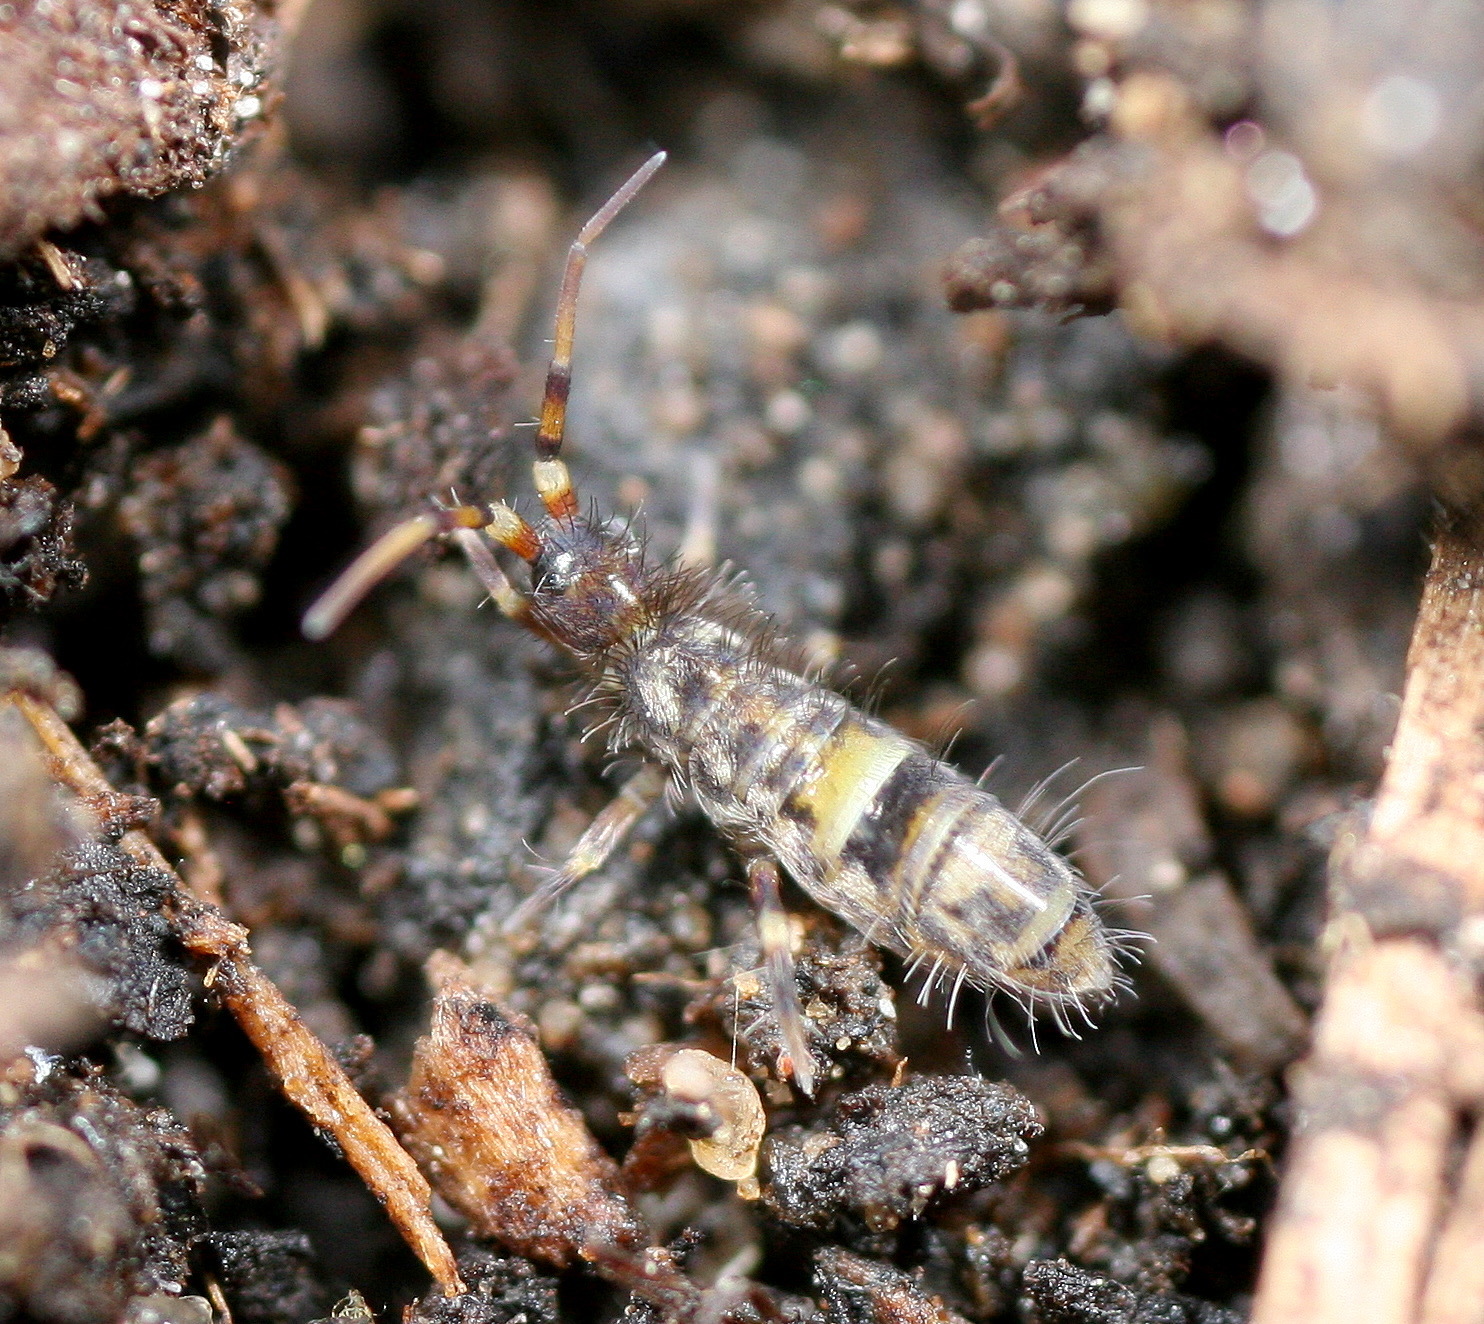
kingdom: Animalia
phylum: Arthropoda
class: Collembola
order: Entomobryomorpha
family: Orchesellidae
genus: Orchesella
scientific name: Orchesella cincta
